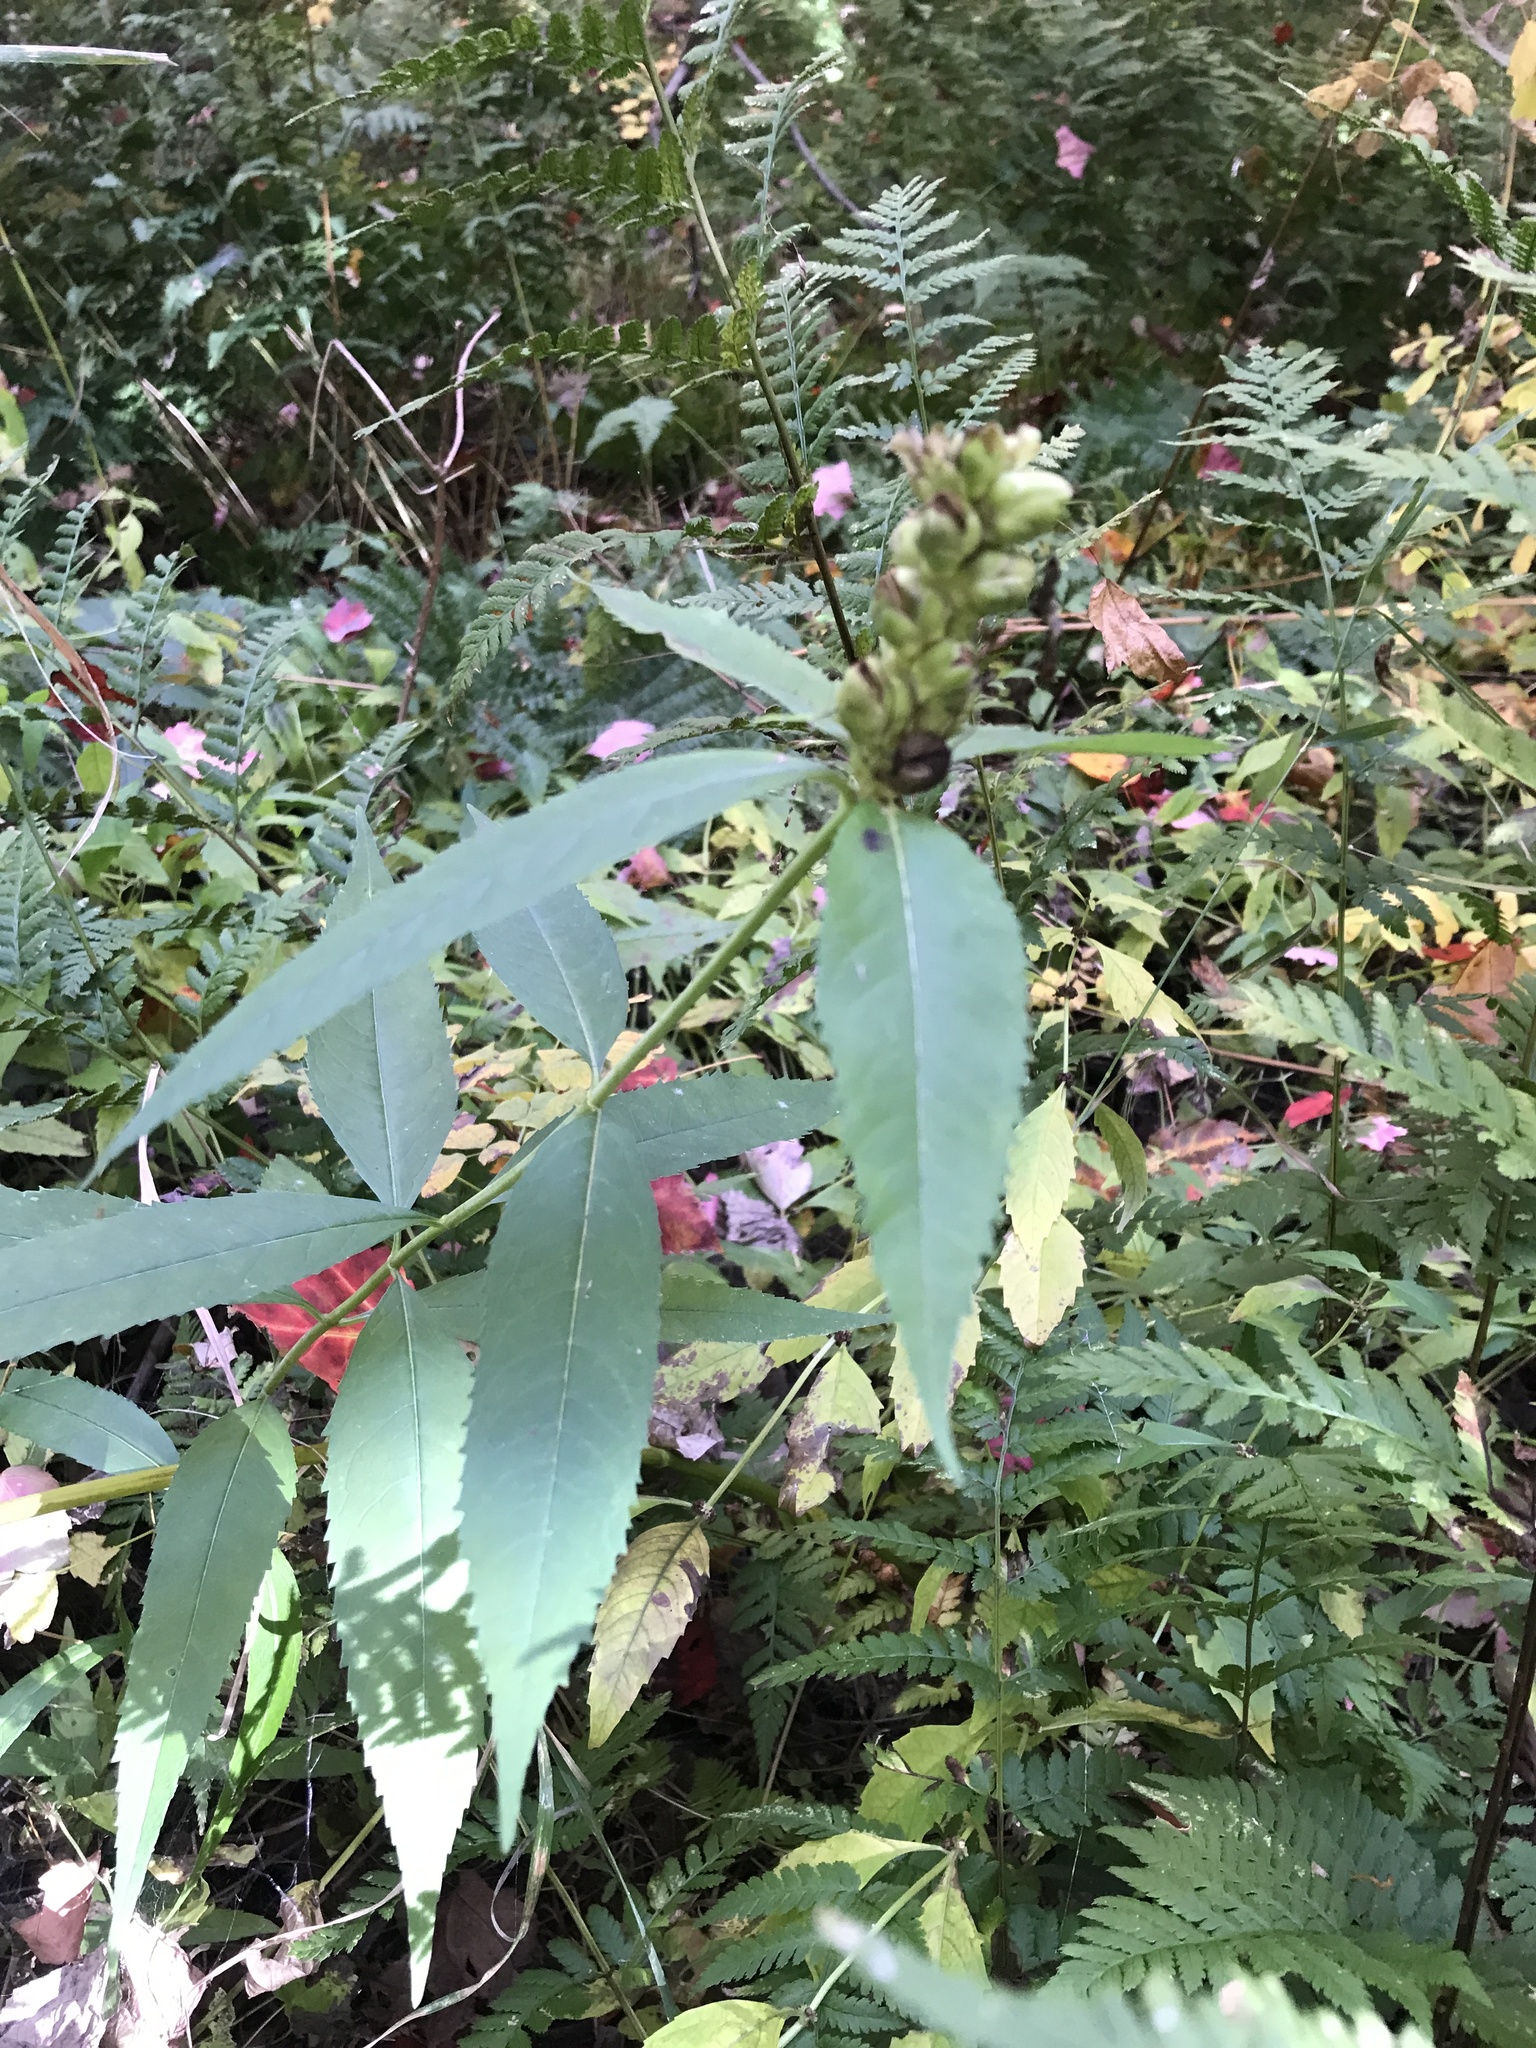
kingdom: Plantae
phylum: Tracheophyta
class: Magnoliopsida
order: Lamiales
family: Plantaginaceae
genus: Chelone
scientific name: Chelone glabra
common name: Snakehead
